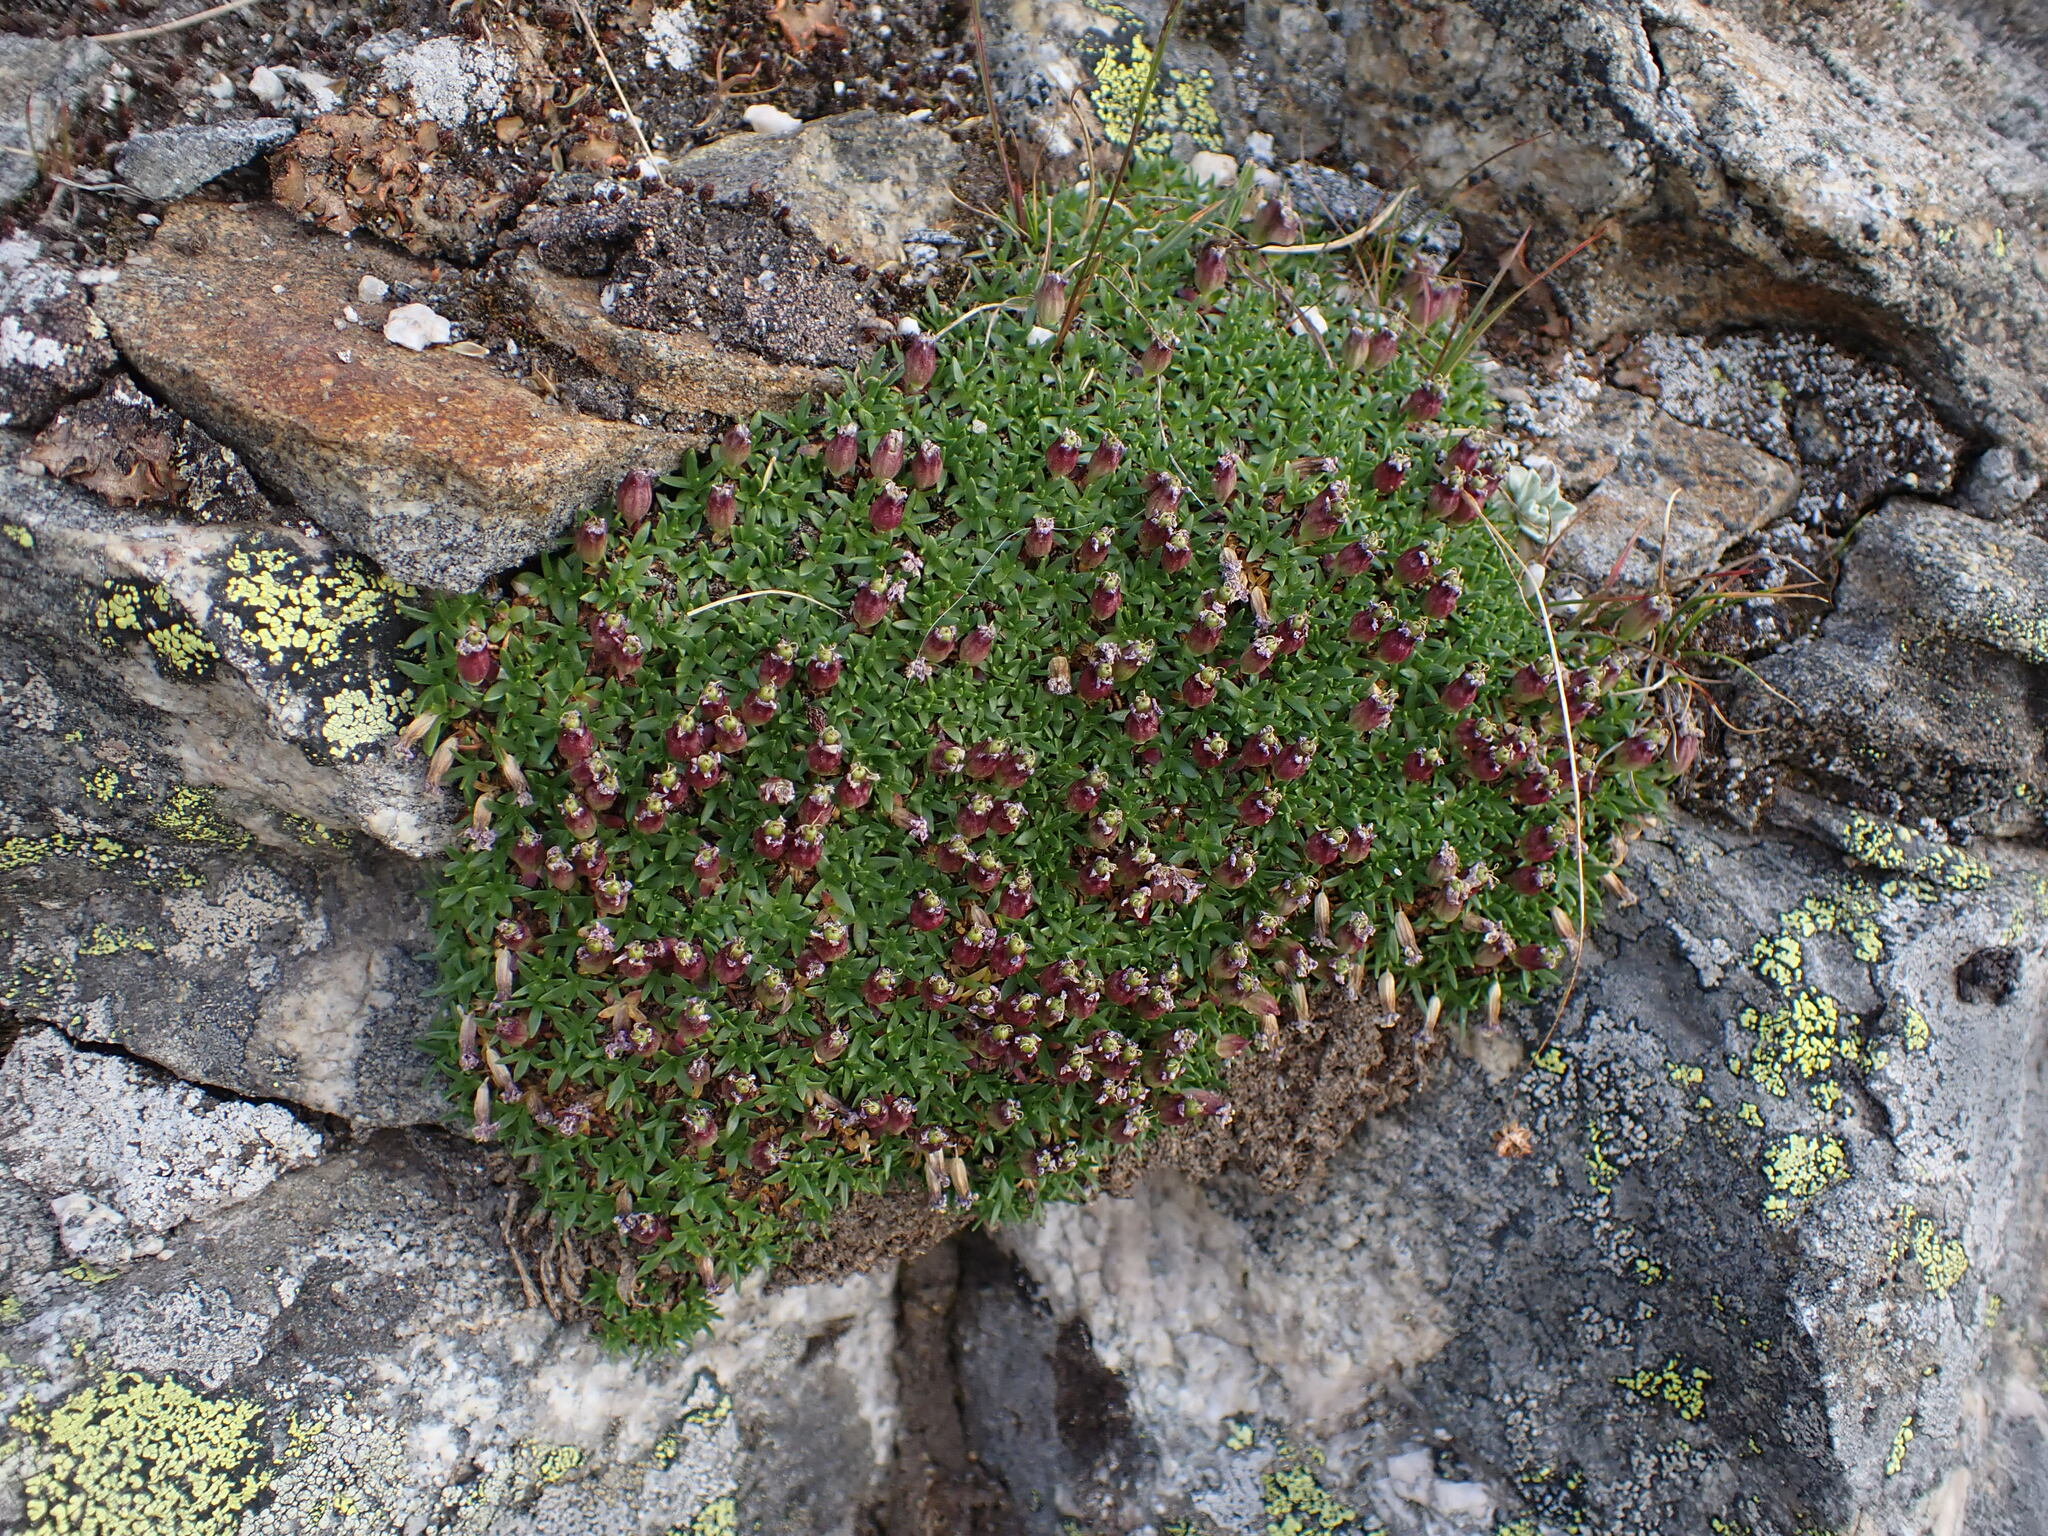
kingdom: Plantae
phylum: Tracheophyta
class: Magnoliopsida
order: Caryophyllales
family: Caryophyllaceae
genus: Silene
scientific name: Silene acaulis
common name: Moss campion
